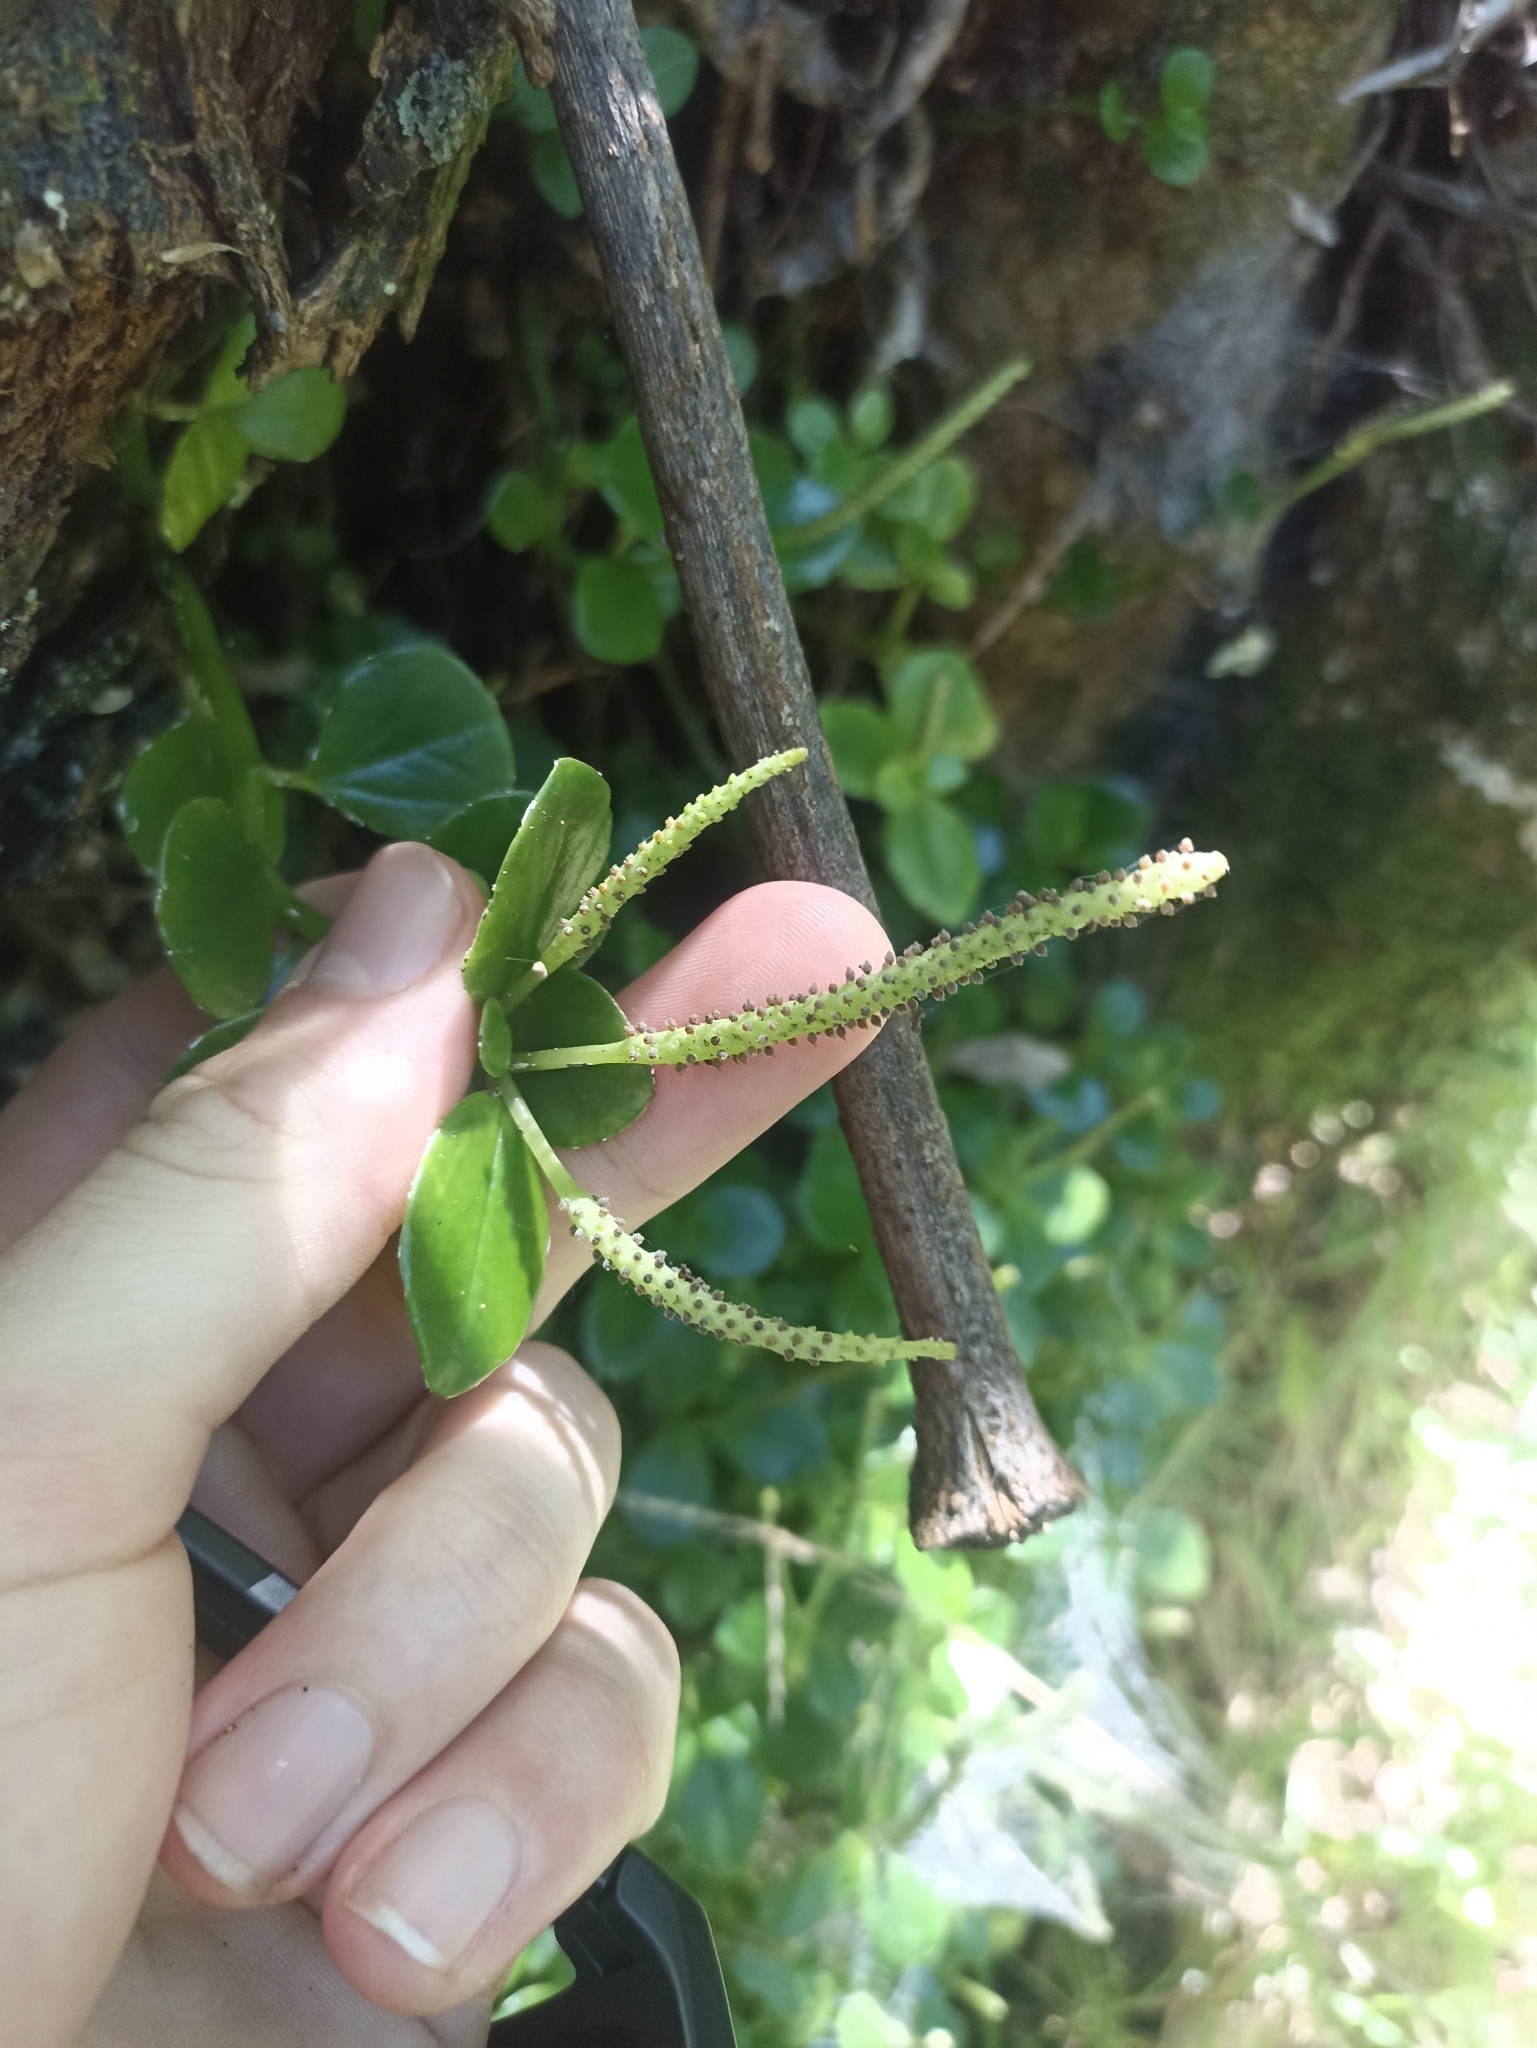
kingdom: Plantae
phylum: Tracheophyta
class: Magnoliopsida
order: Piperales
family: Piperaceae
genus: Peperomia
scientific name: Peperomia urvilleana
